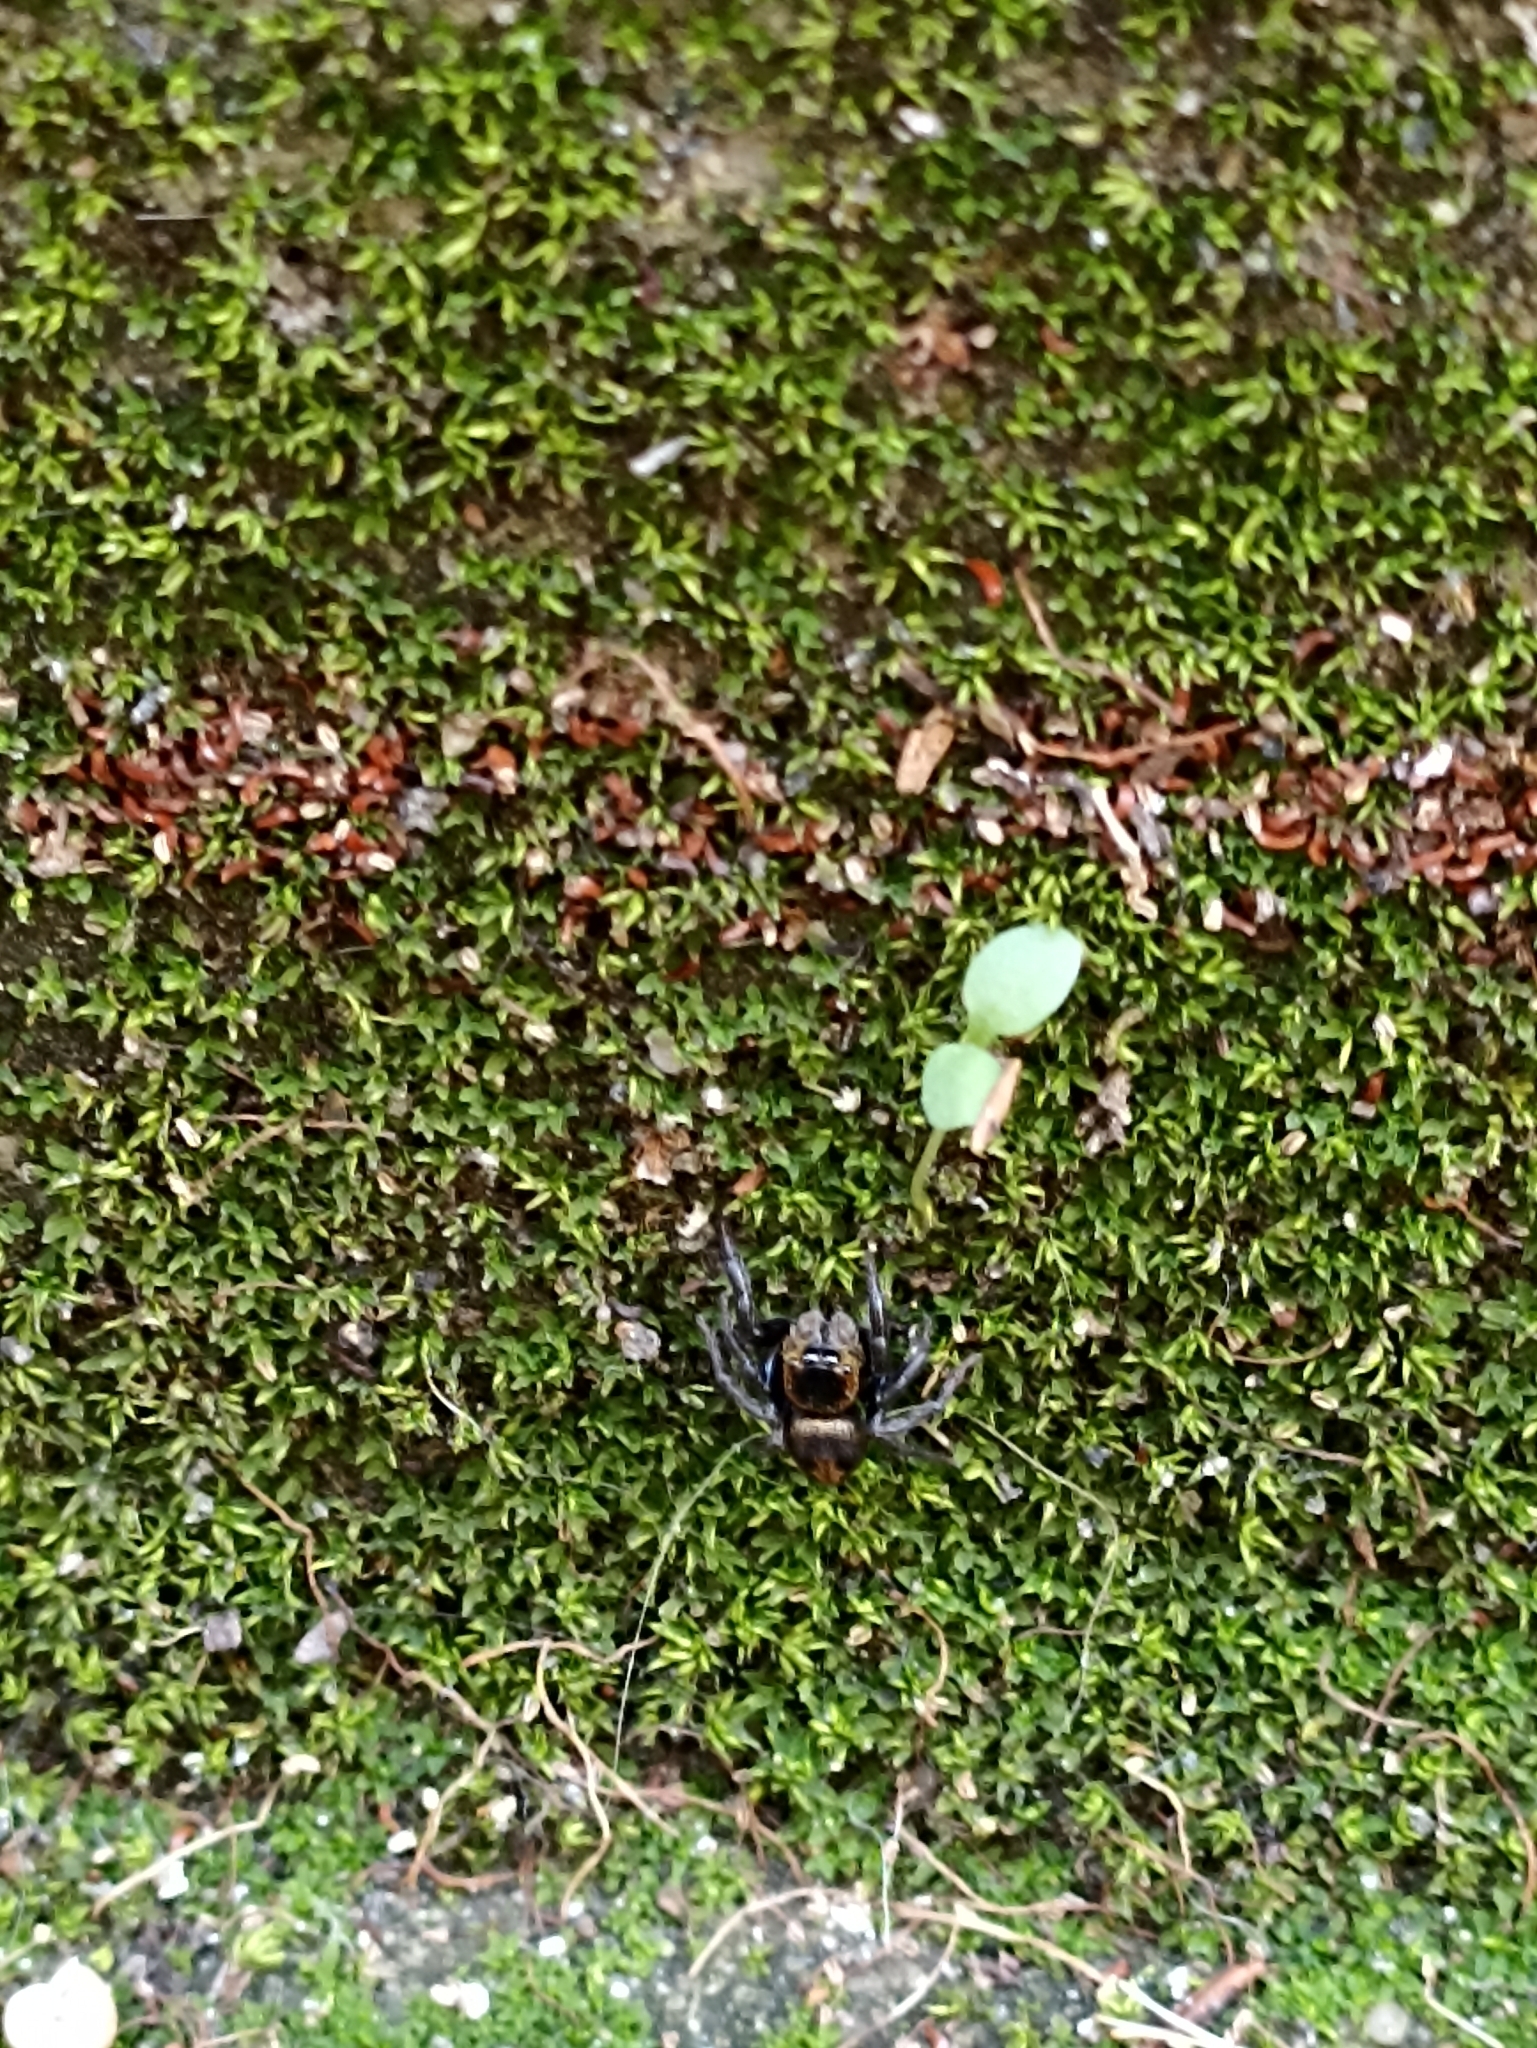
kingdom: Animalia
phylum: Arthropoda
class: Arachnida
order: Araneae
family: Salticidae
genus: Hasarius
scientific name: Hasarius adansoni
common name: Jumping spider
